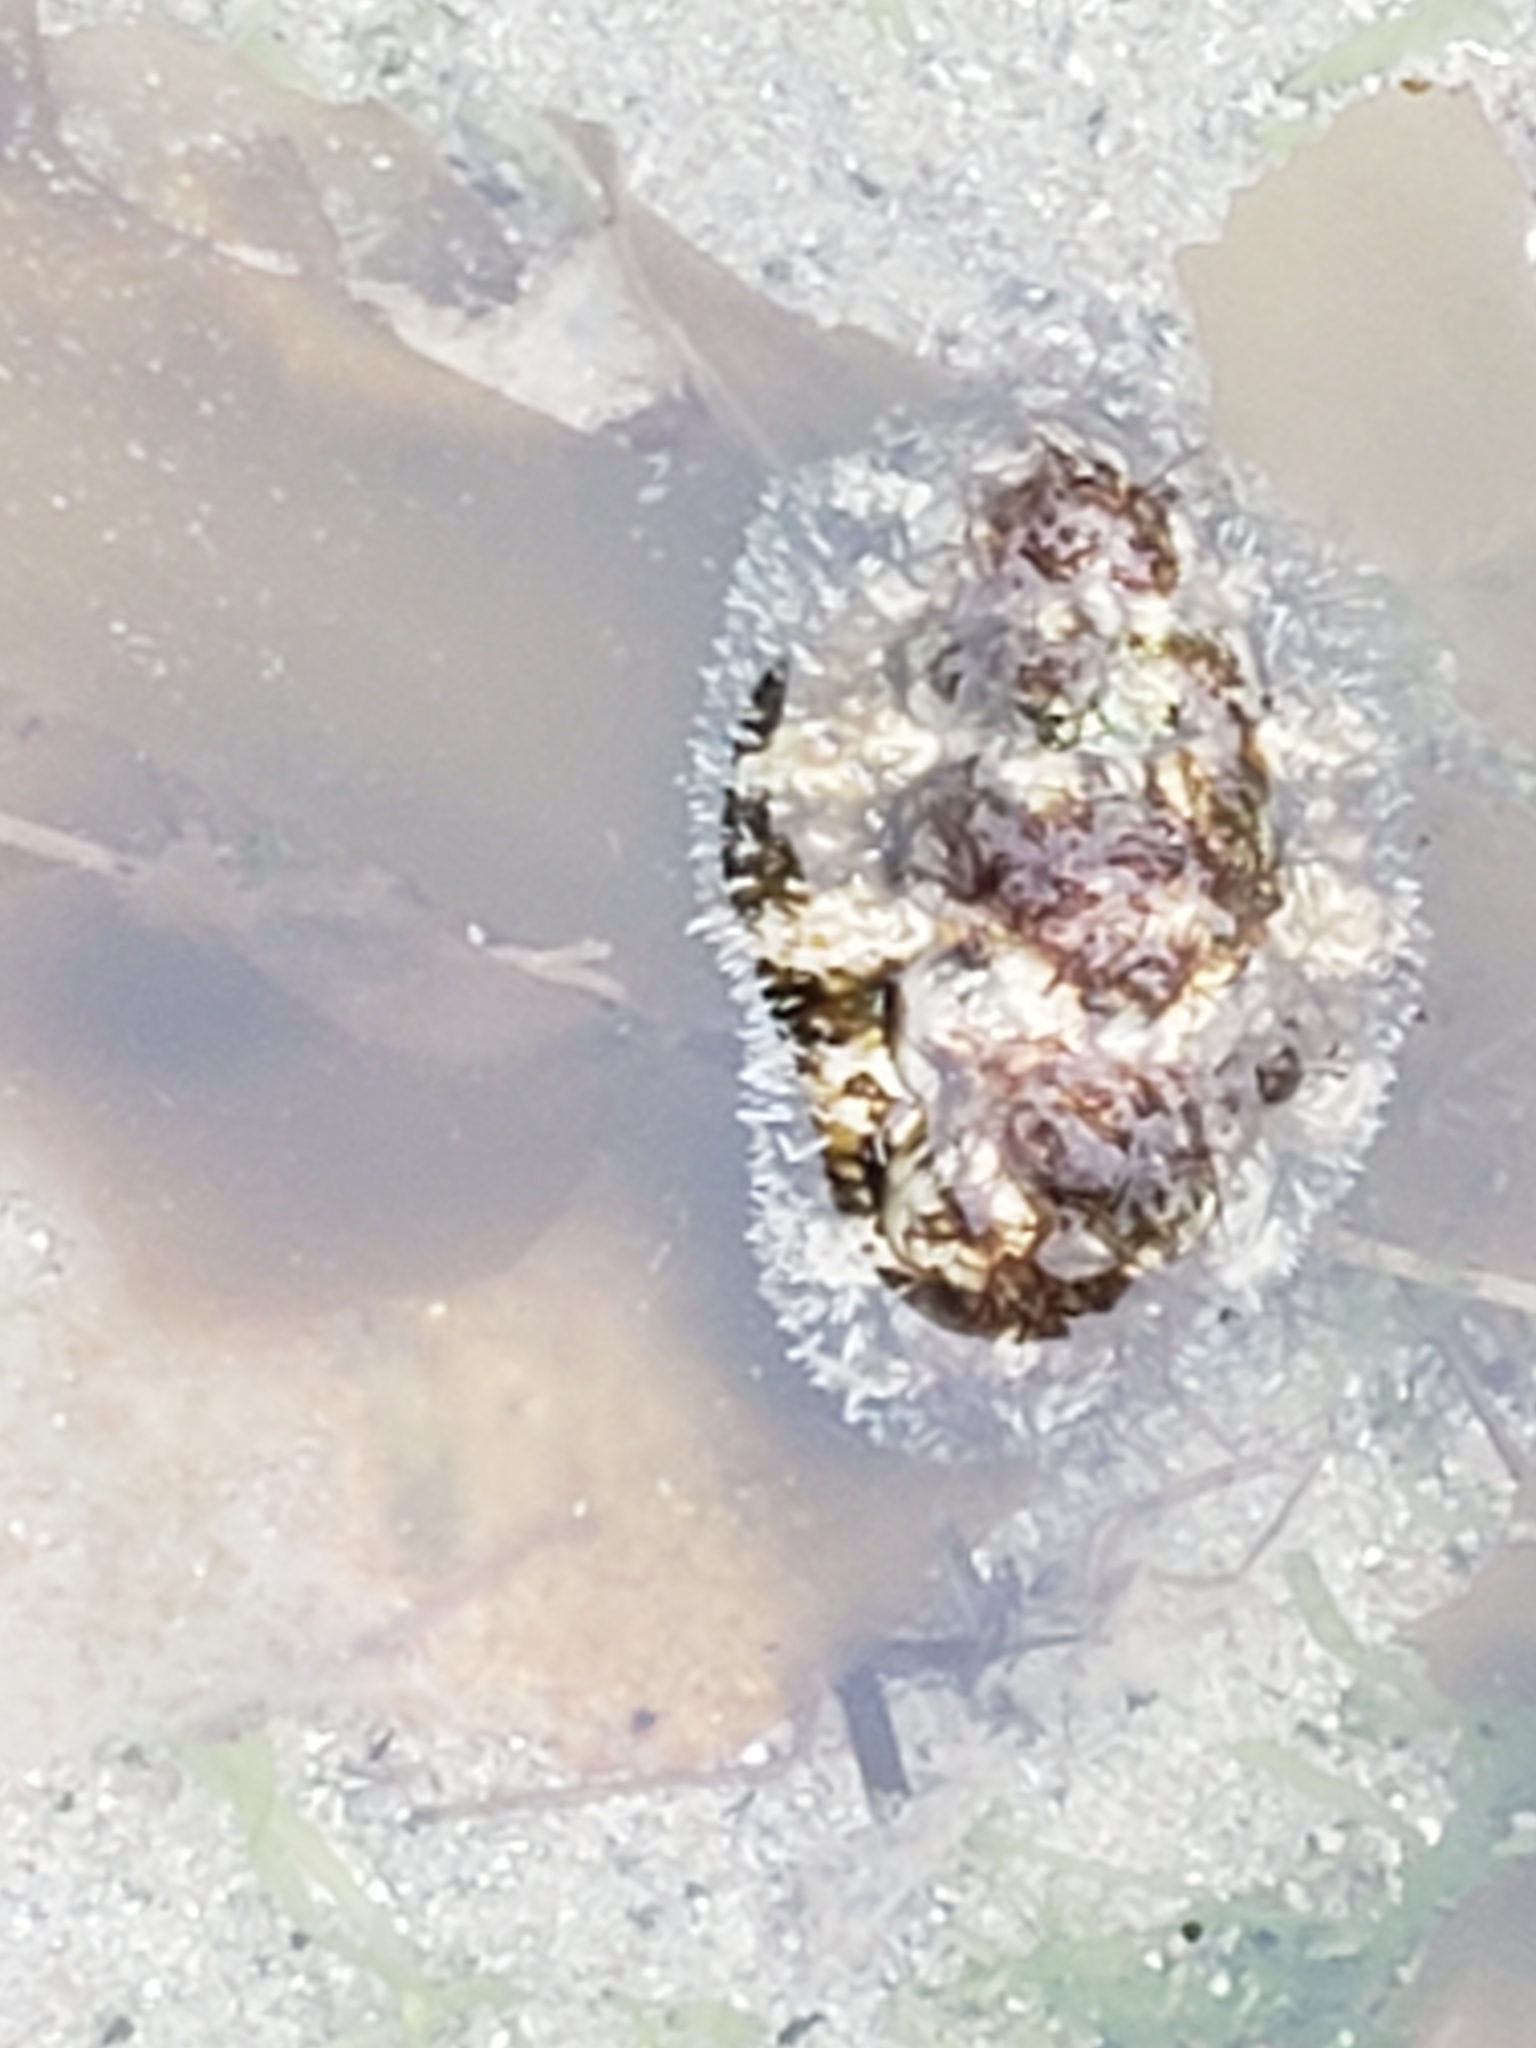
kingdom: Animalia
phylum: Mollusca
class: Polyplacophora
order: Chitonida
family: Tonicellidae
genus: Nuttallina
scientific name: Nuttallina californica
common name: California nuttall chiton
